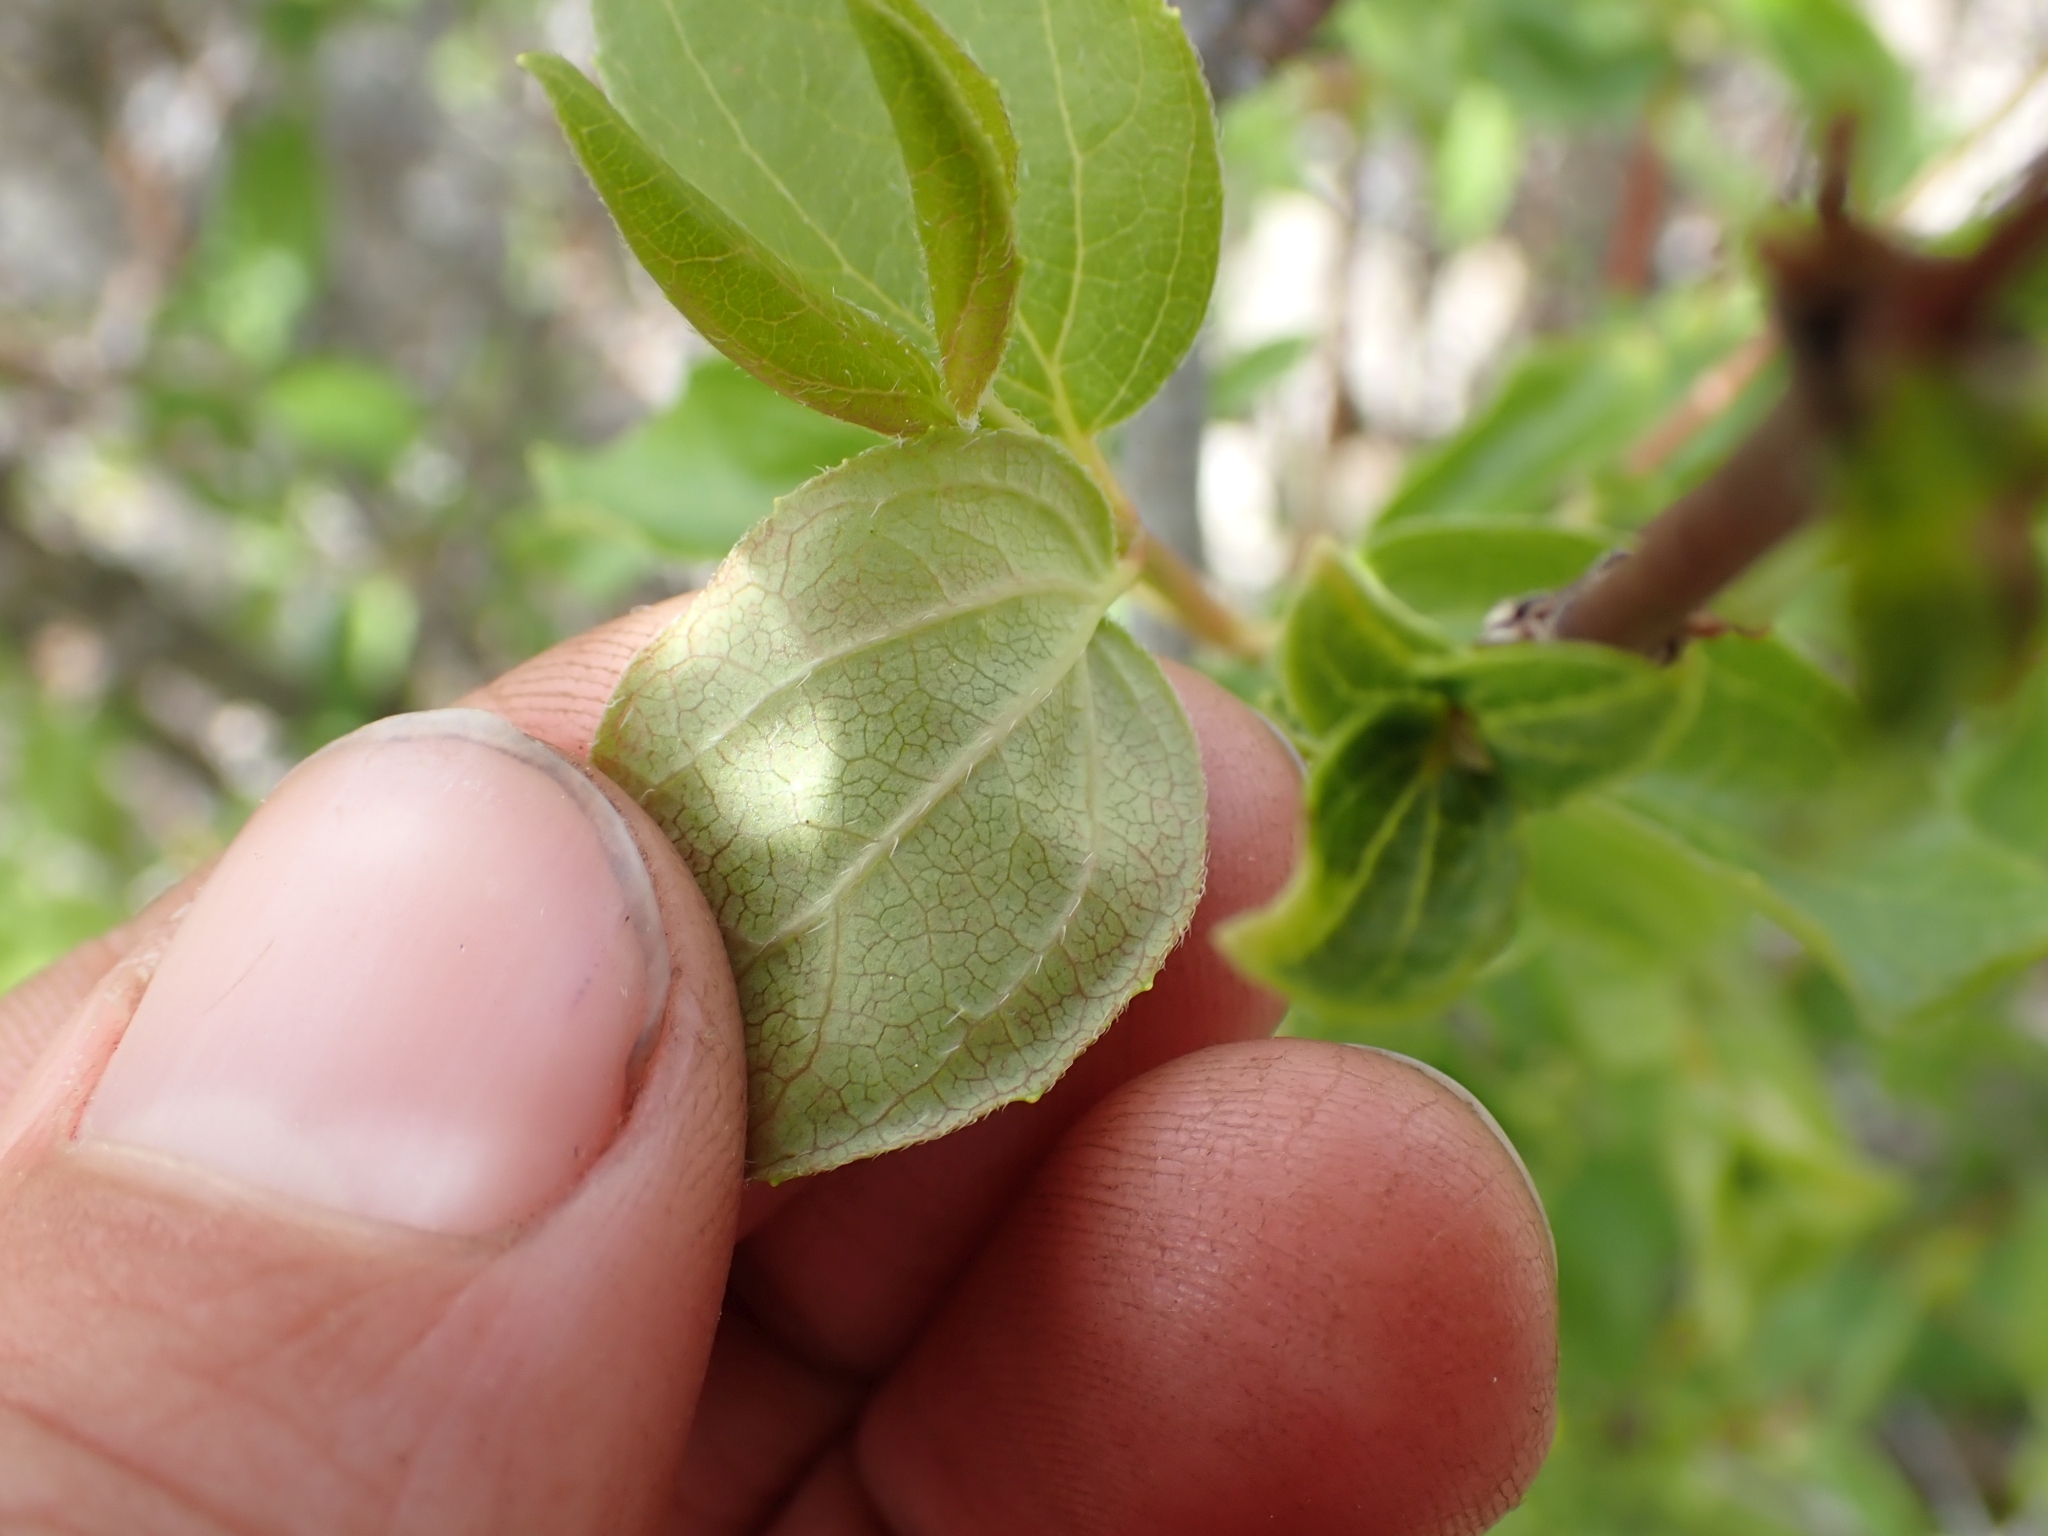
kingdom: Plantae
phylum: Tracheophyta
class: Magnoliopsida
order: Cornales
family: Hydrangeaceae
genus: Philadelphus
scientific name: Philadelphus lewisii
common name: Lewis's mock orange
